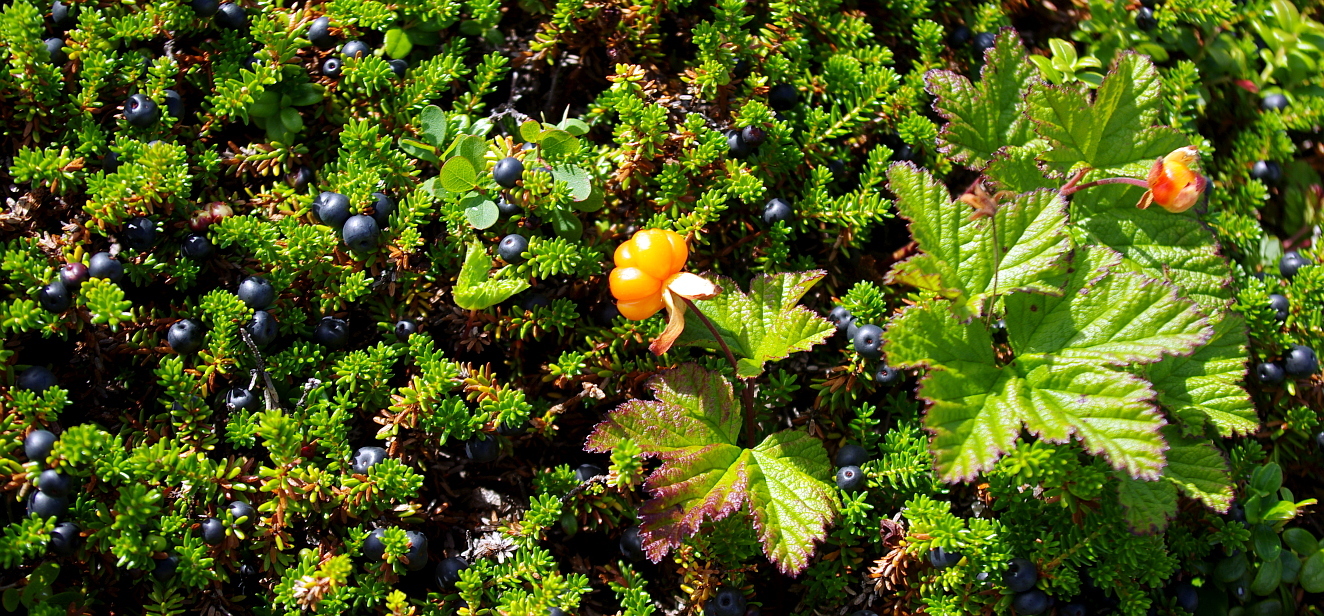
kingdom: Plantae
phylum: Tracheophyta
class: Magnoliopsida
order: Ericales
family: Ericaceae
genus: Empetrum
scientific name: Empetrum nigrum
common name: Black crowberry
